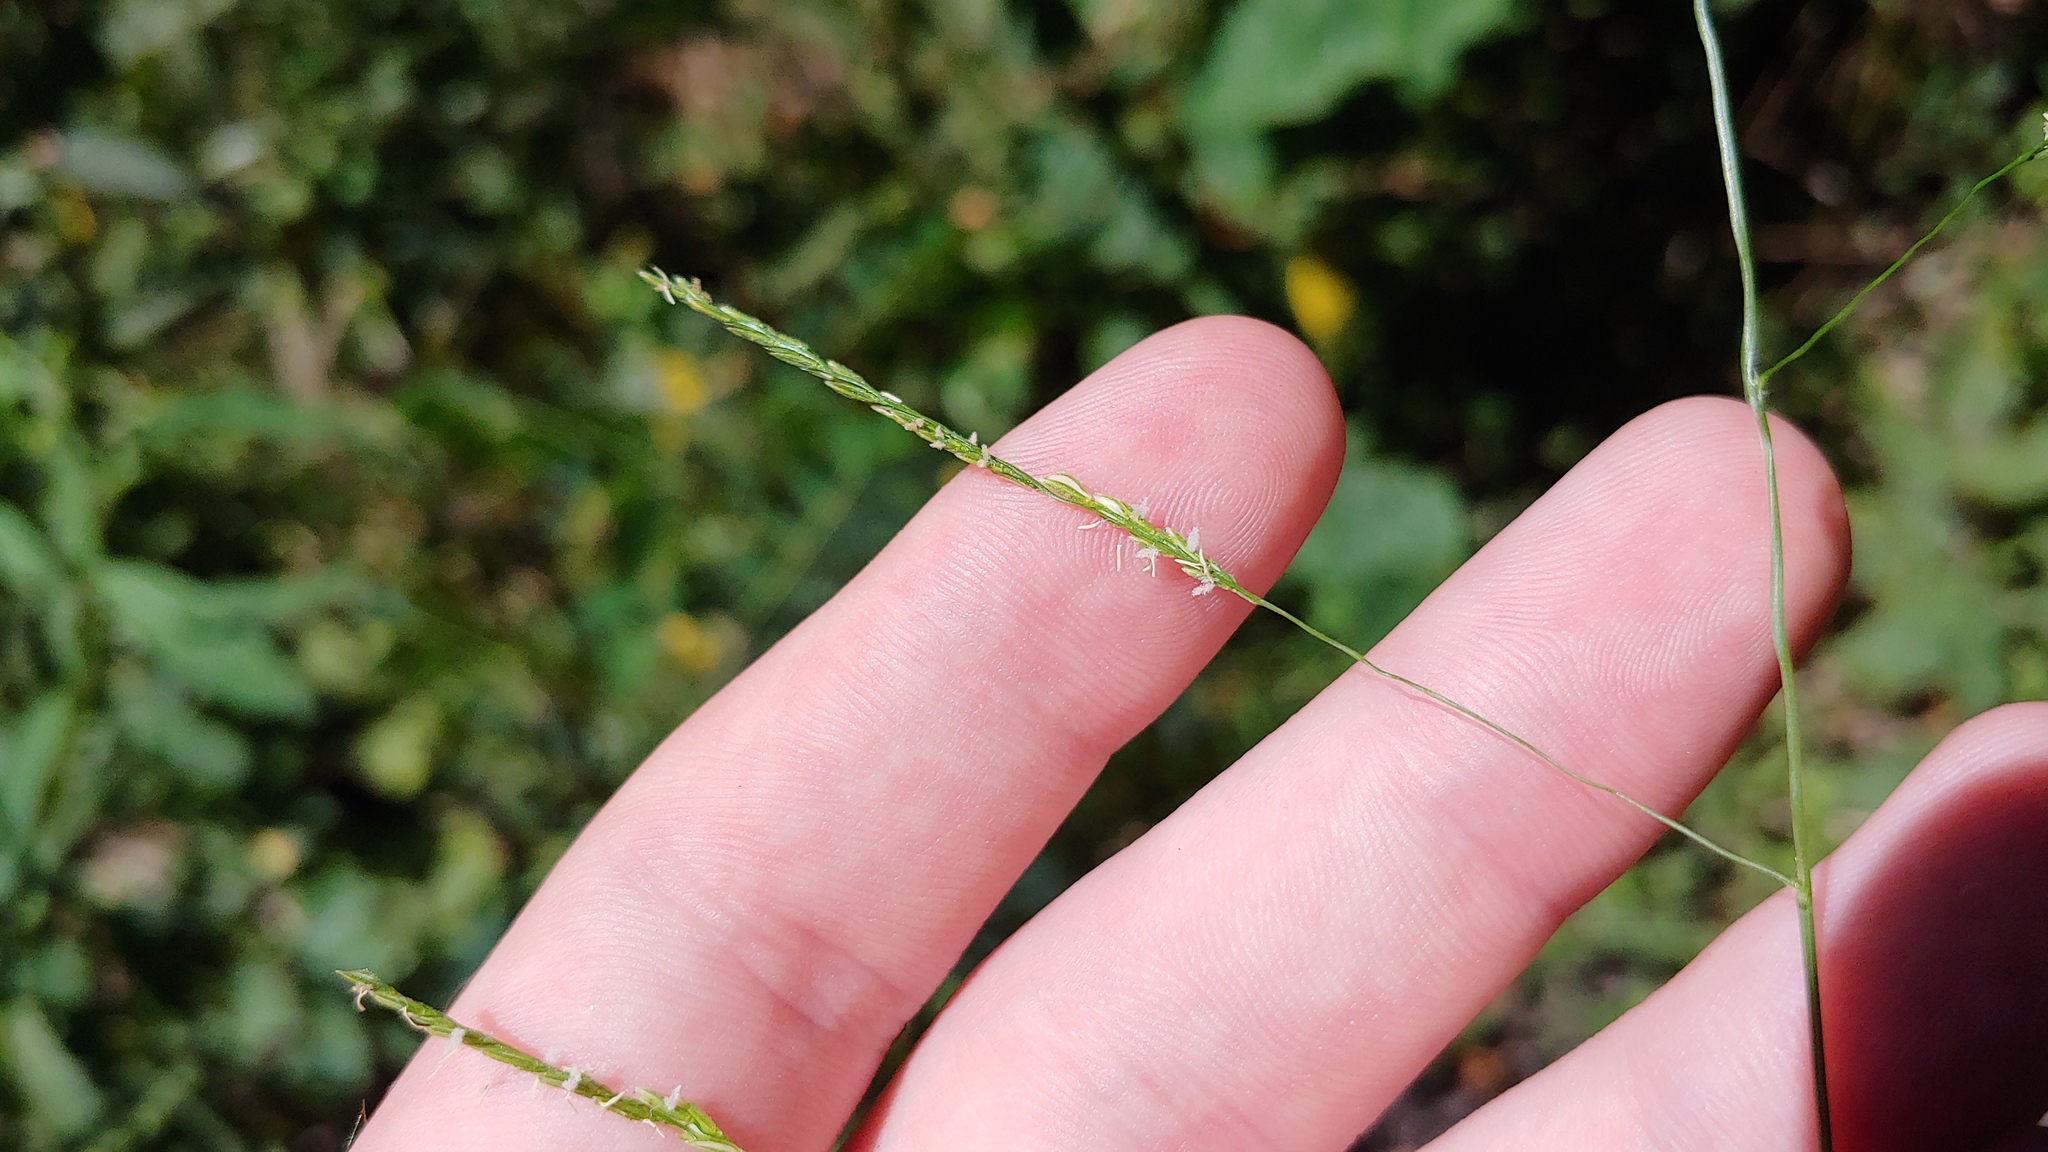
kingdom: Plantae
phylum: Tracheophyta
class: Liliopsida
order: Poales
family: Poaceae
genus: Leersia
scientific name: Leersia virginica
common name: White cutgrass
